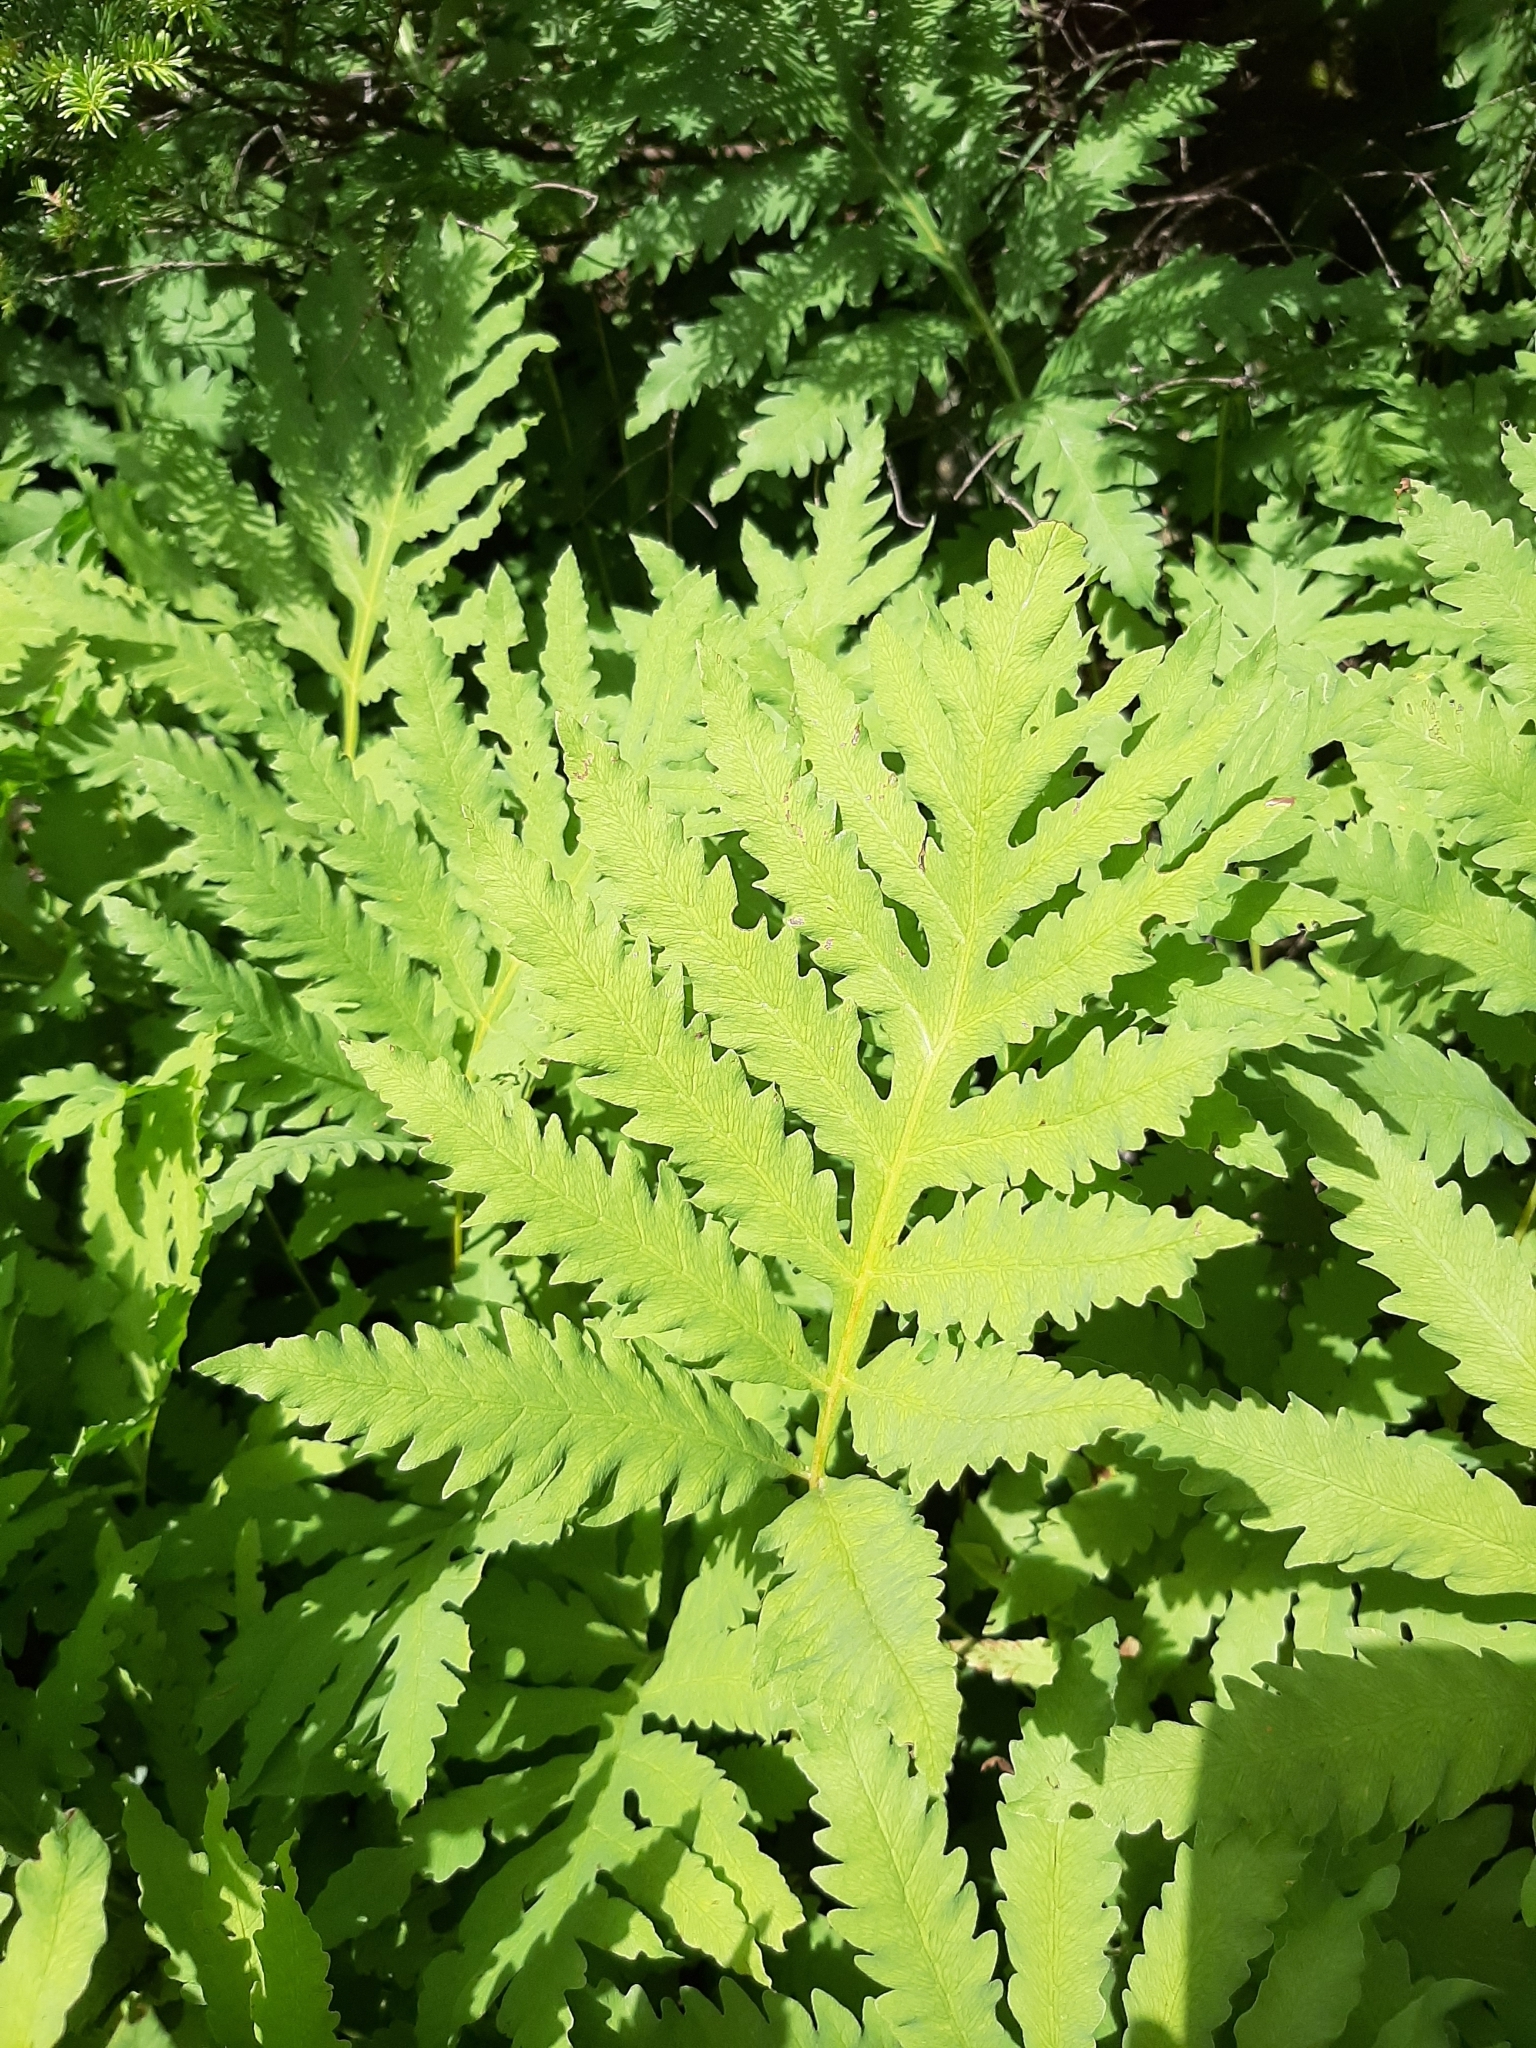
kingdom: Plantae
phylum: Tracheophyta
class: Polypodiopsida
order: Polypodiales
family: Onocleaceae
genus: Onoclea
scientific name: Onoclea sensibilis
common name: Sensitive fern
